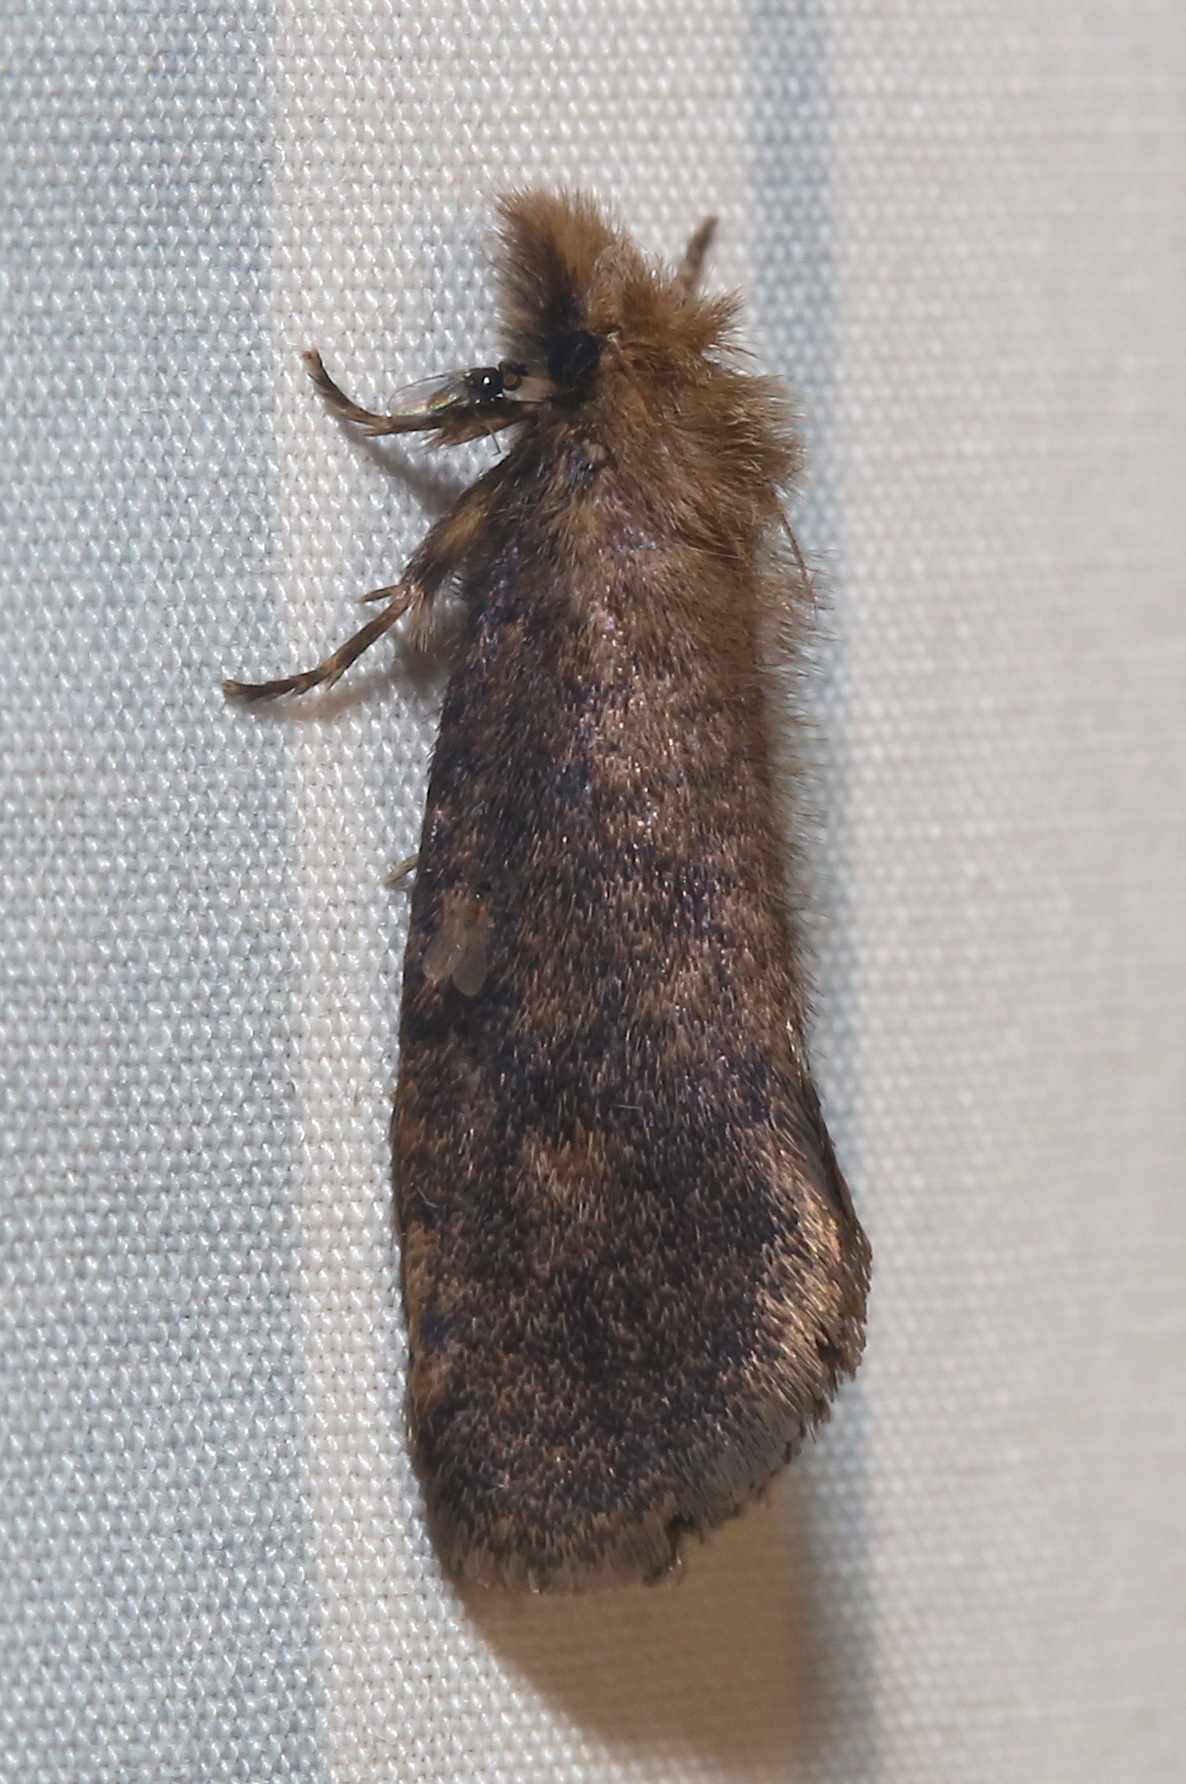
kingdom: Animalia
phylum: Arthropoda
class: Insecta
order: Lepidoptera
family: Tineidae
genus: Acrolophus
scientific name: Acrolophus propinqua
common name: Walsingham's grass tubeworm moth
